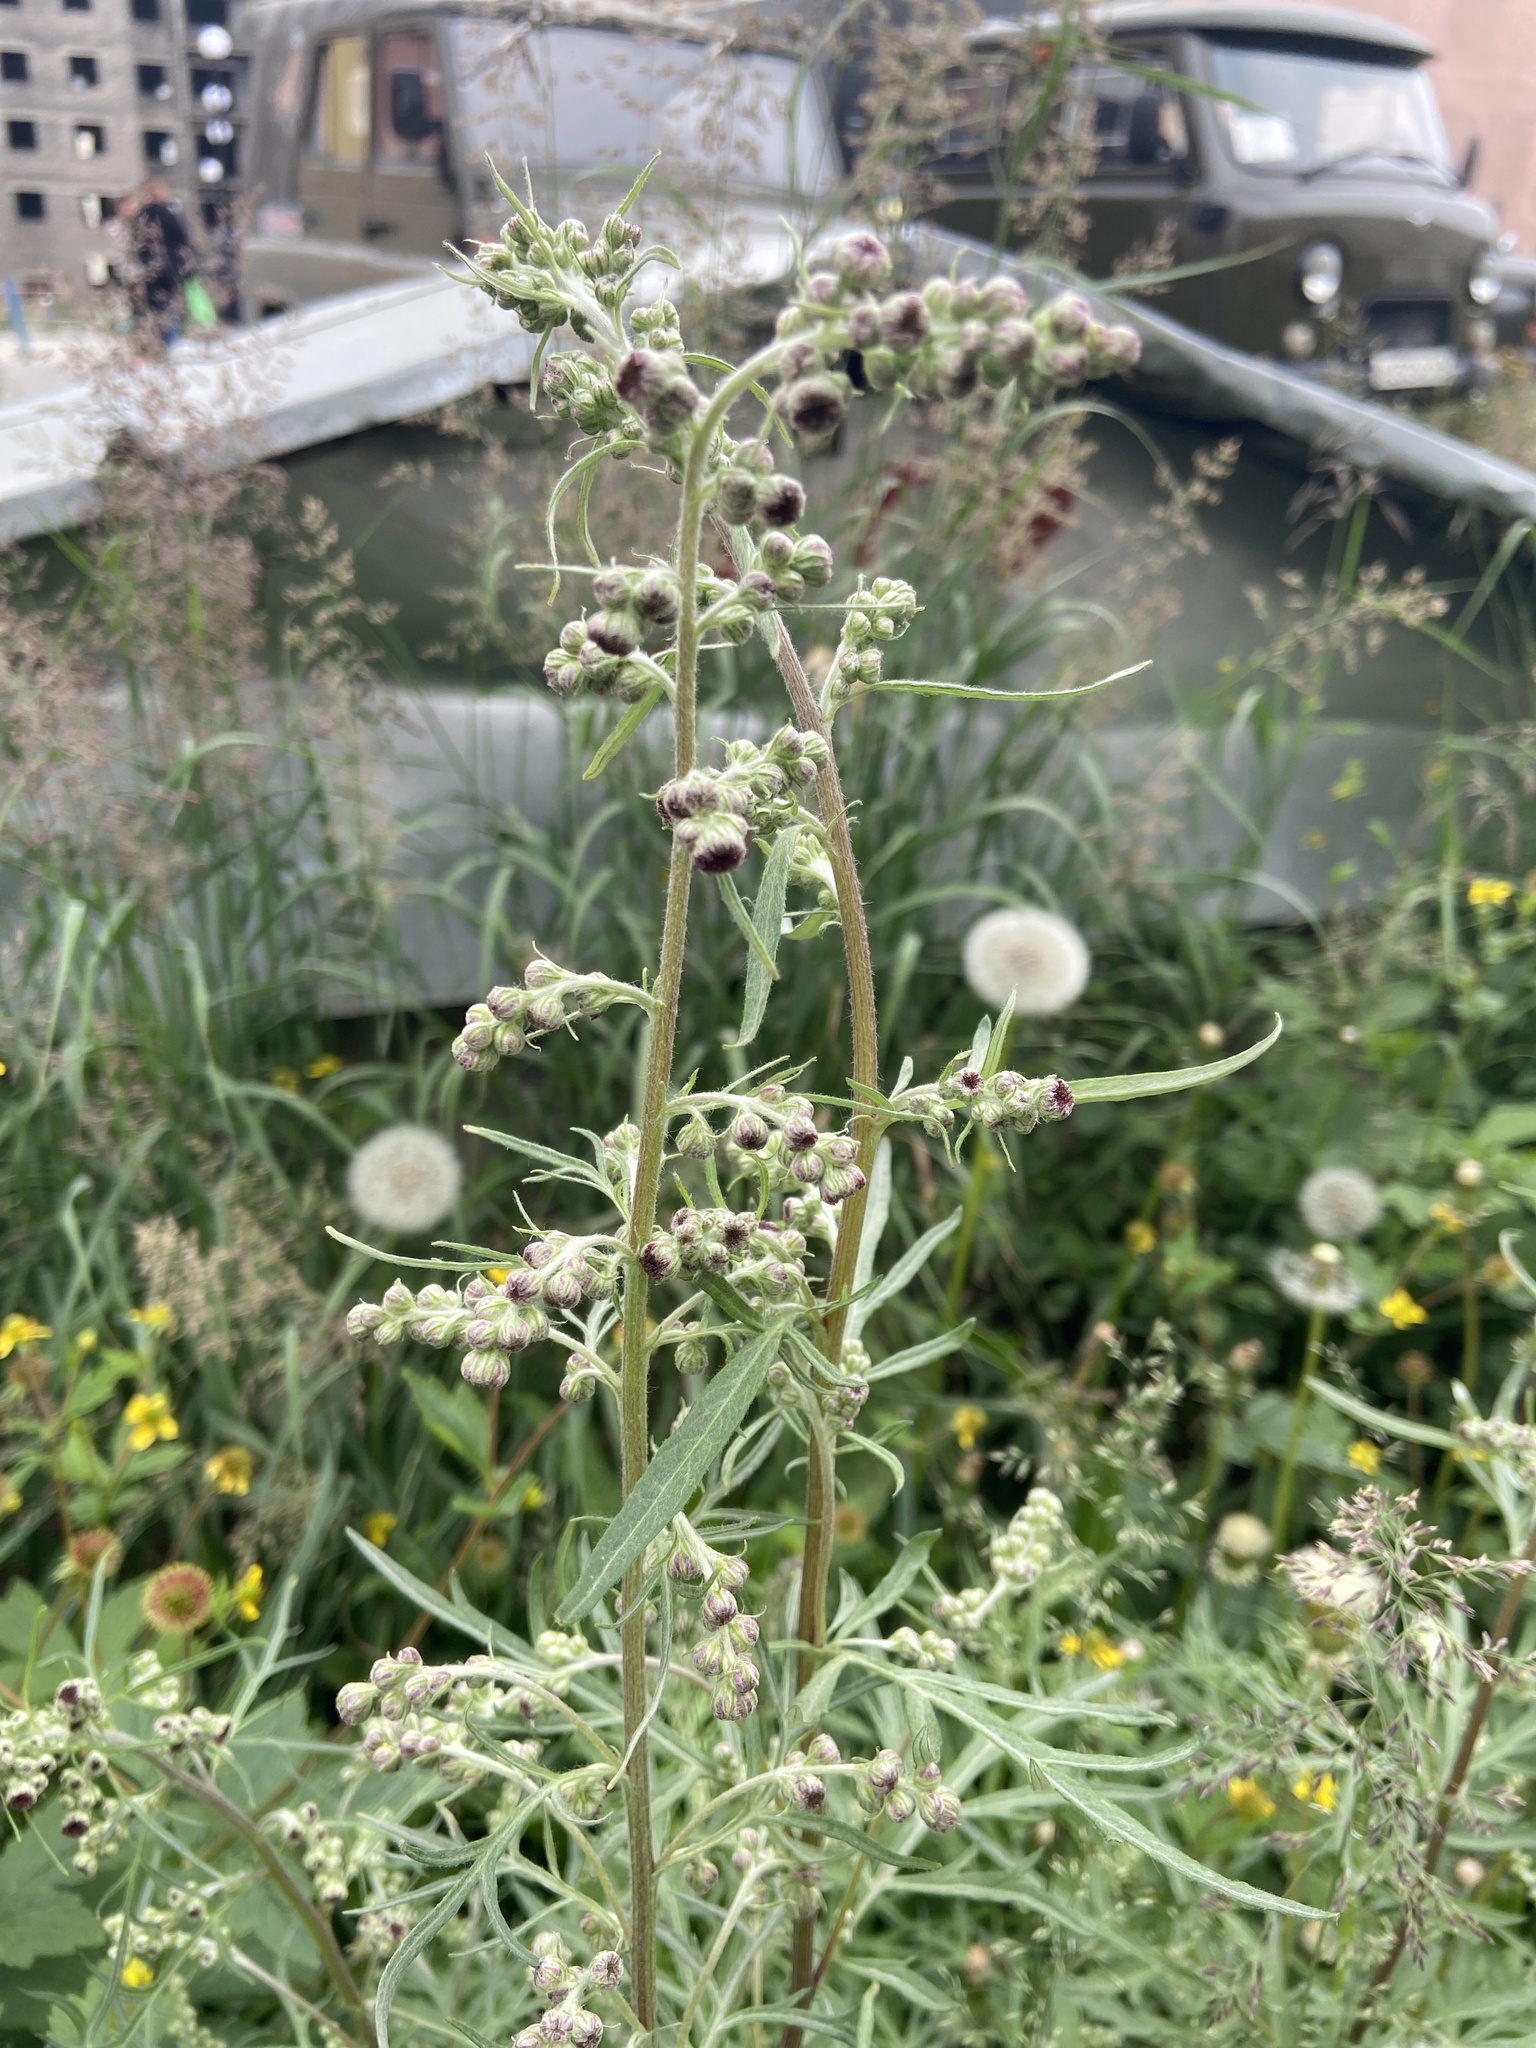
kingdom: Plantae
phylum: Tracheophyta
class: Magnoliopsida
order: Asterales
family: Asteraceae
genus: Artemisia
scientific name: Artemisia leucophylla
